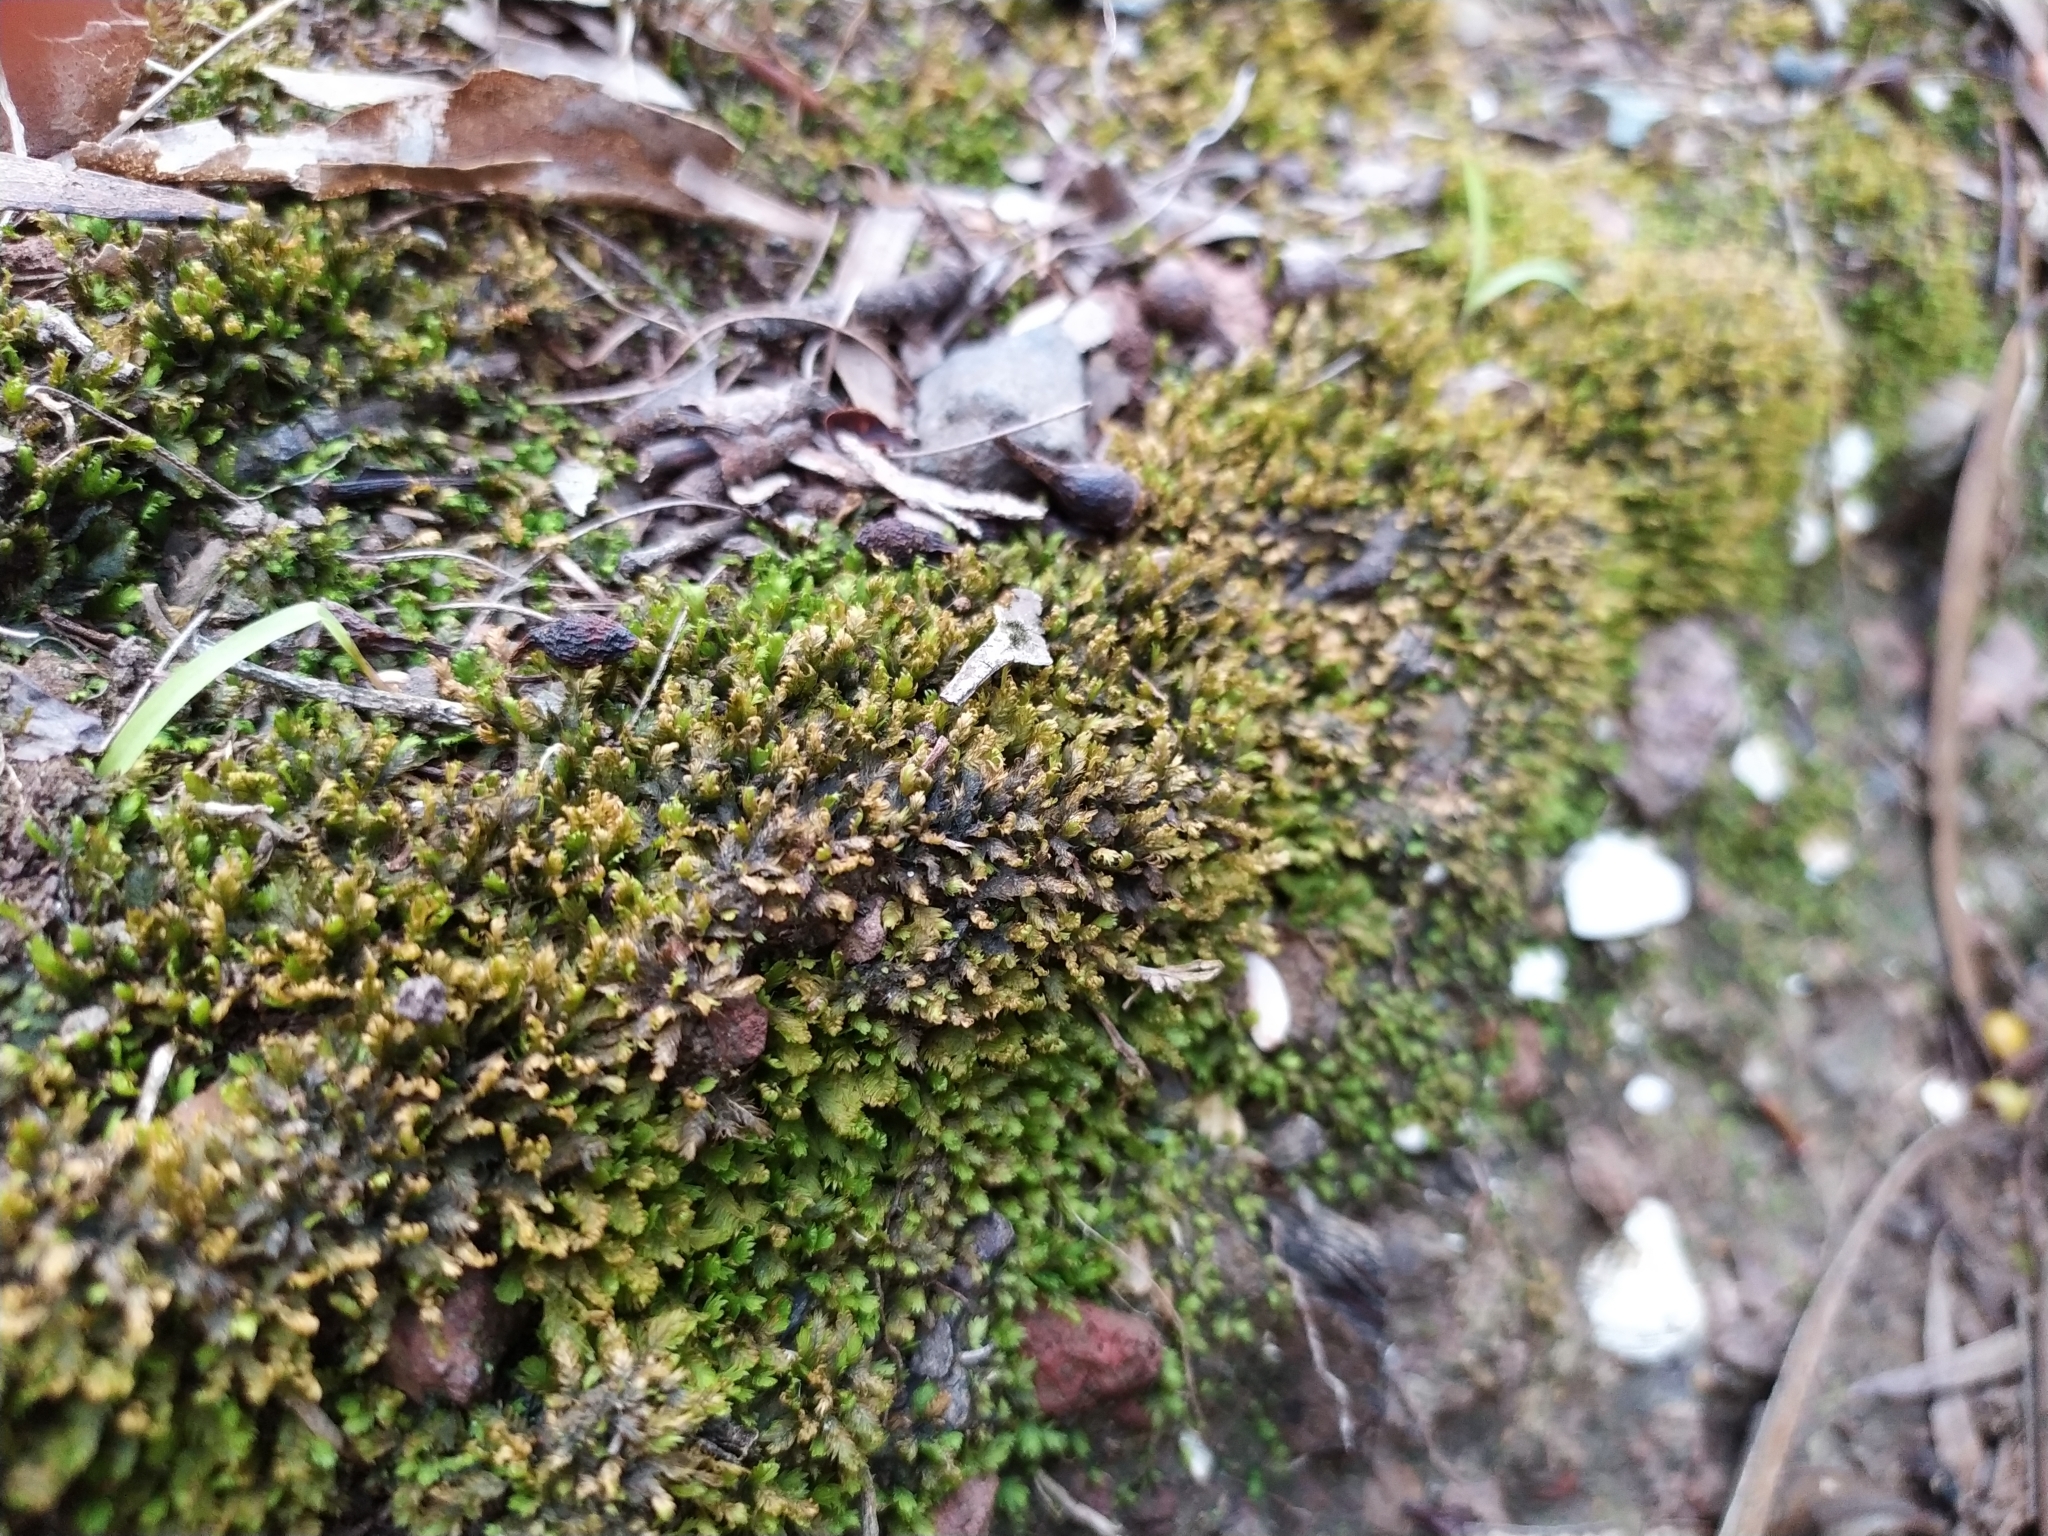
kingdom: Plantae
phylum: Bryophyta
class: Bryopsida
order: Dicranales
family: Fissidentaceae
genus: Fissidens
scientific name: Fissidens taxifolius
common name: Yew-leaved pocket moss
